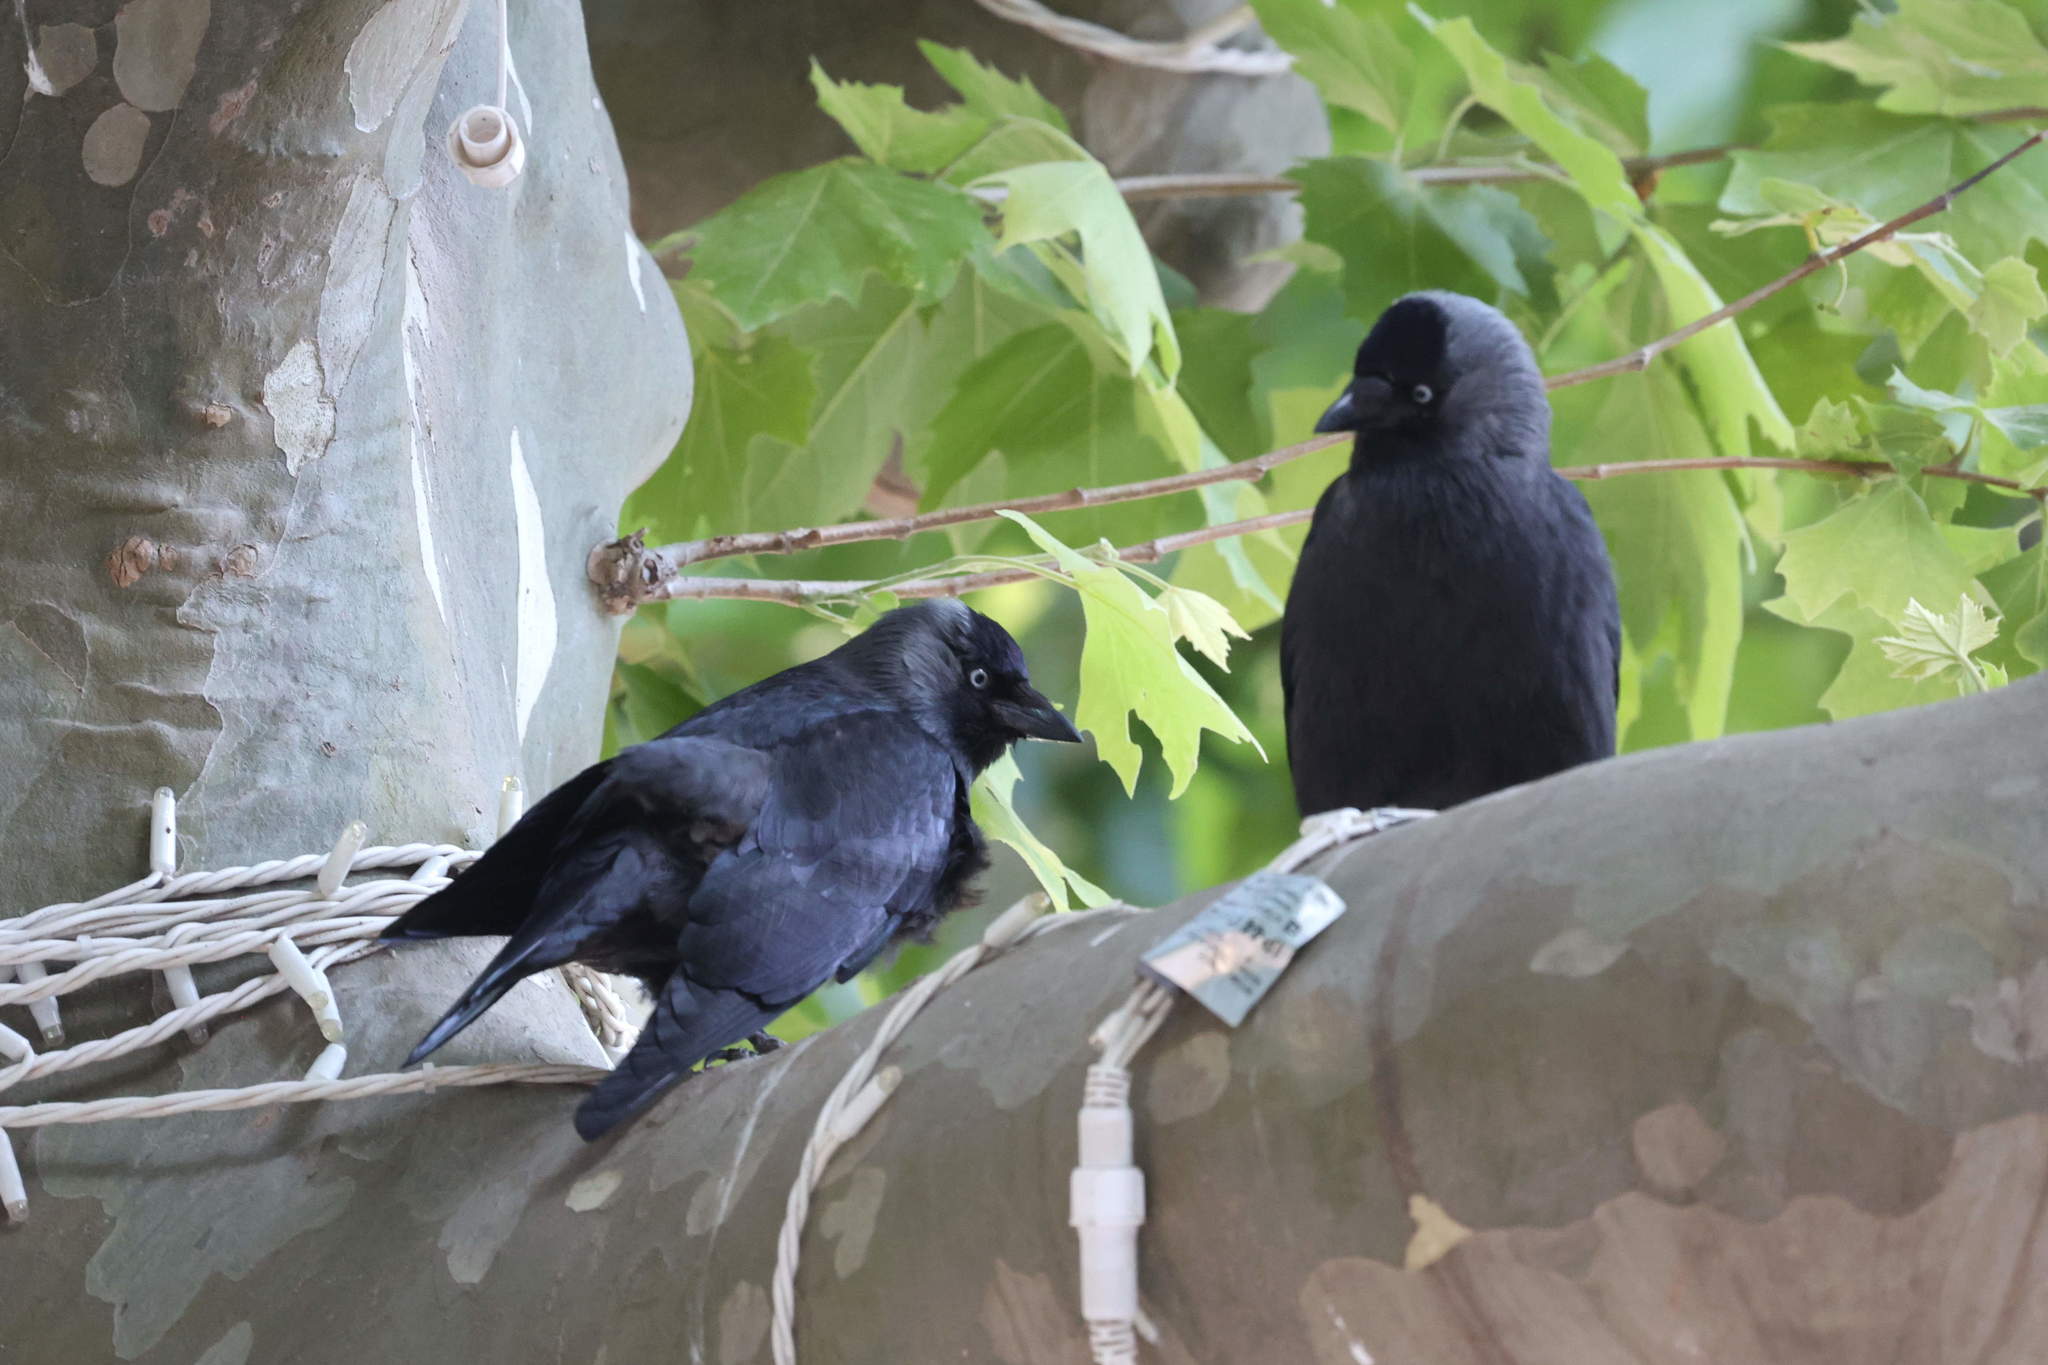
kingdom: Animalia
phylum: Chordata
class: Aves
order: Passeriformes
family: Corvidae
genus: Coloeus
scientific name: Coloeus monedula
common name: Western jackdaw
